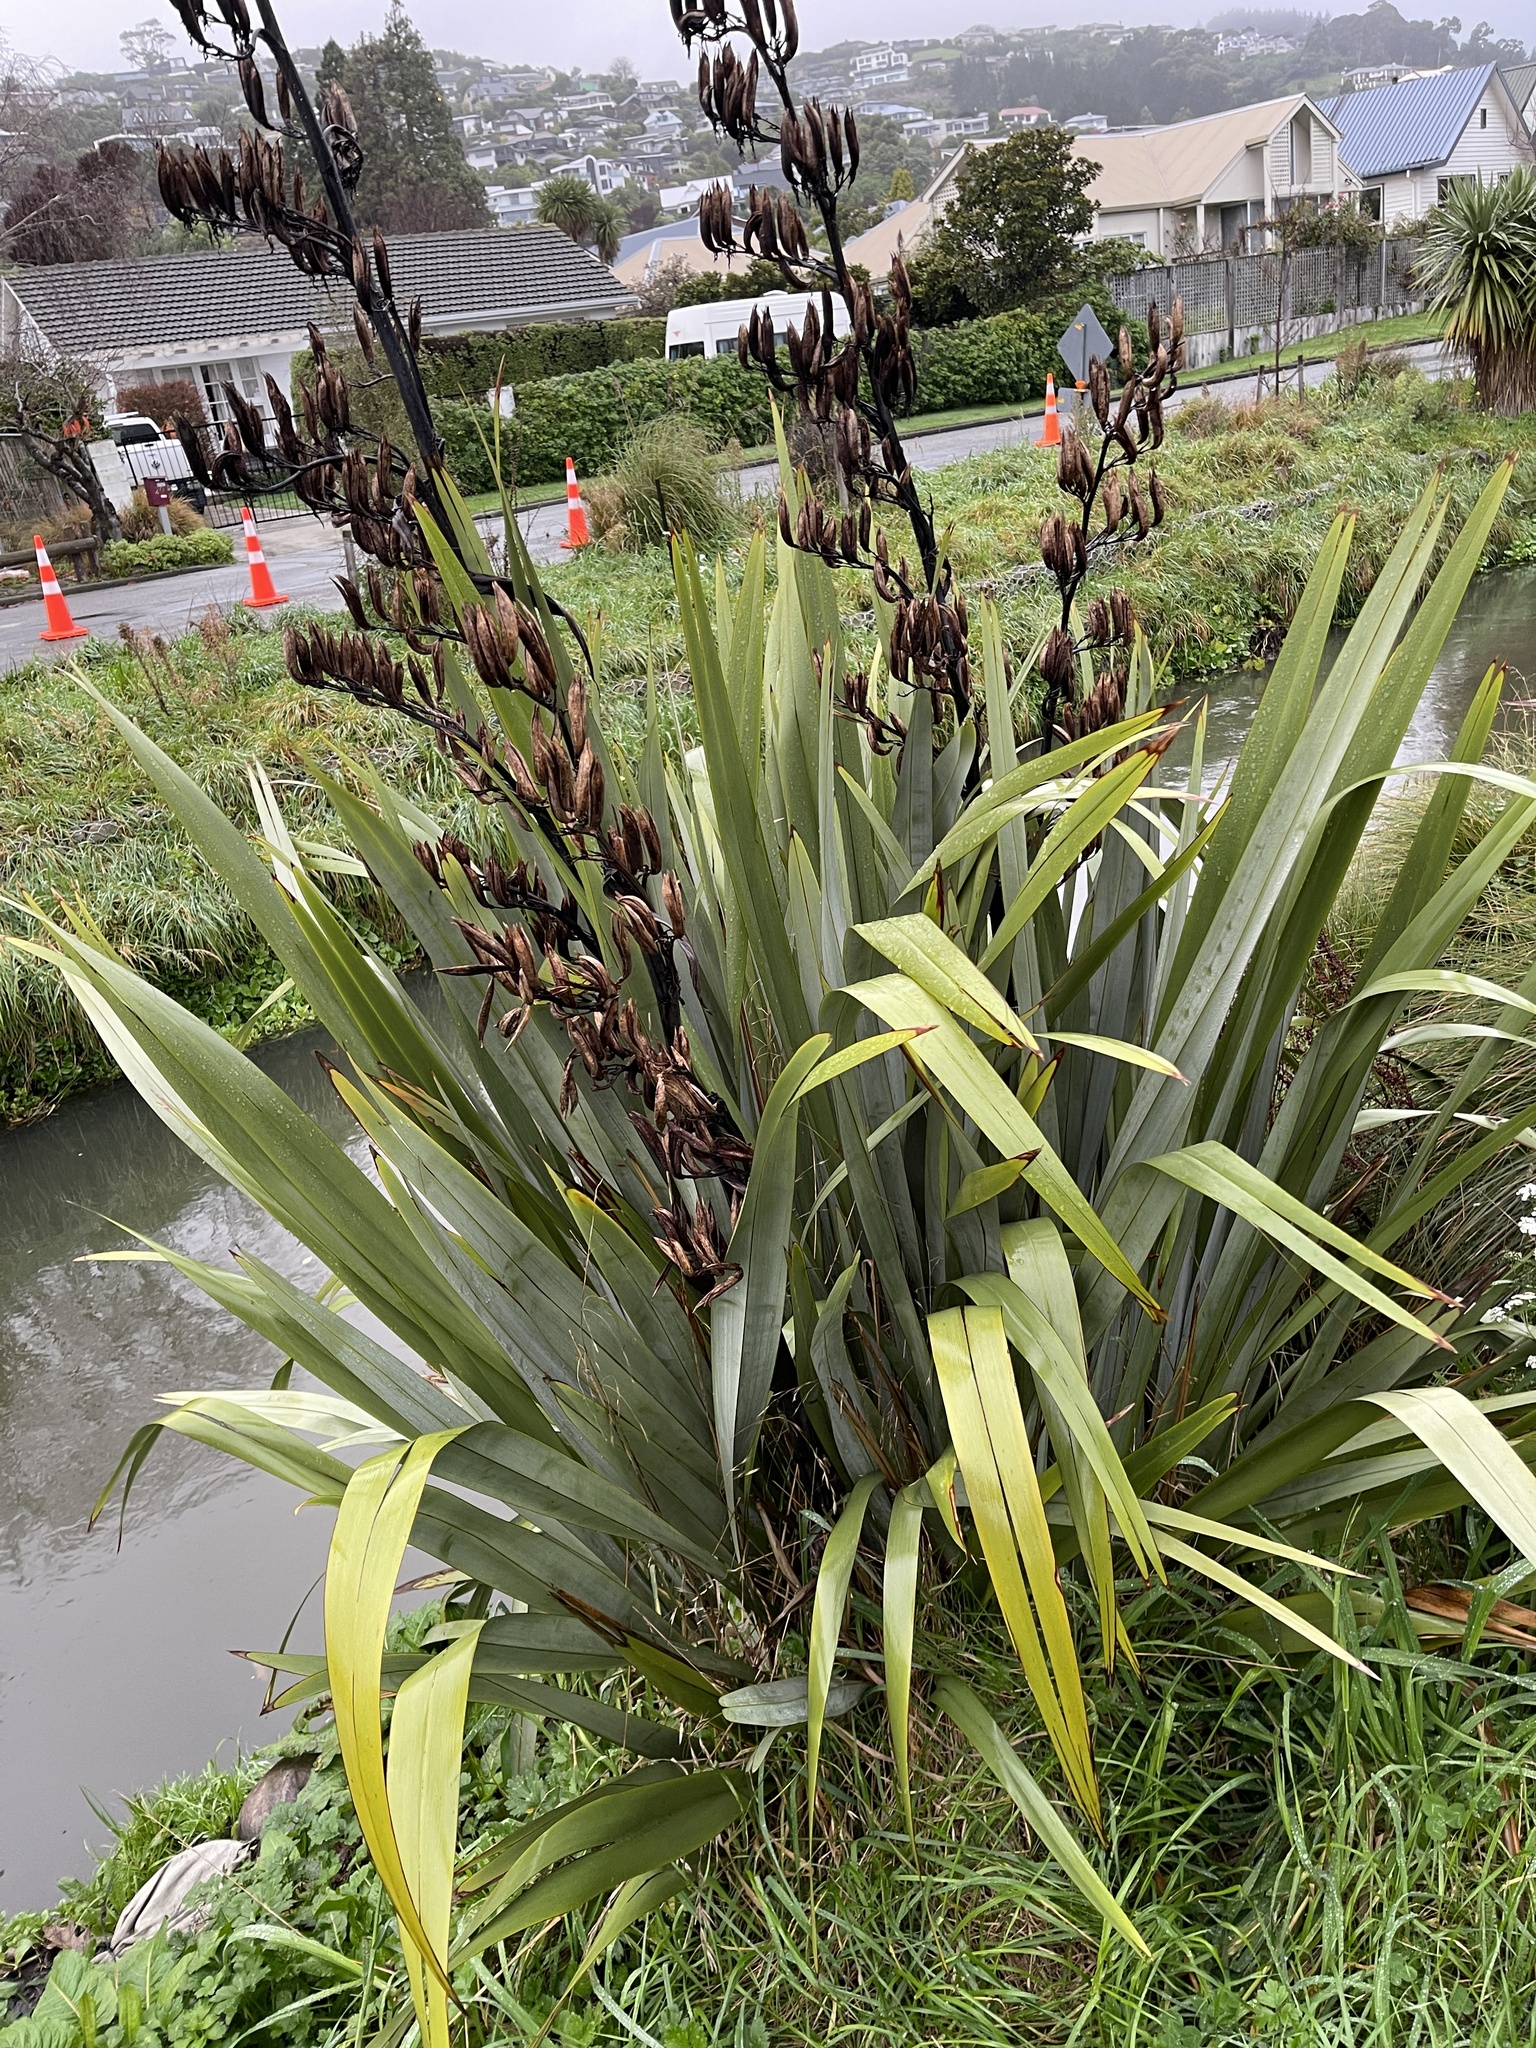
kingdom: Plantae
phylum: Tracheophyta
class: Liliopsida
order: Asparagales
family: Asphodelaceae
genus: Phormium
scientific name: Phormium tenax
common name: New zealand flax
